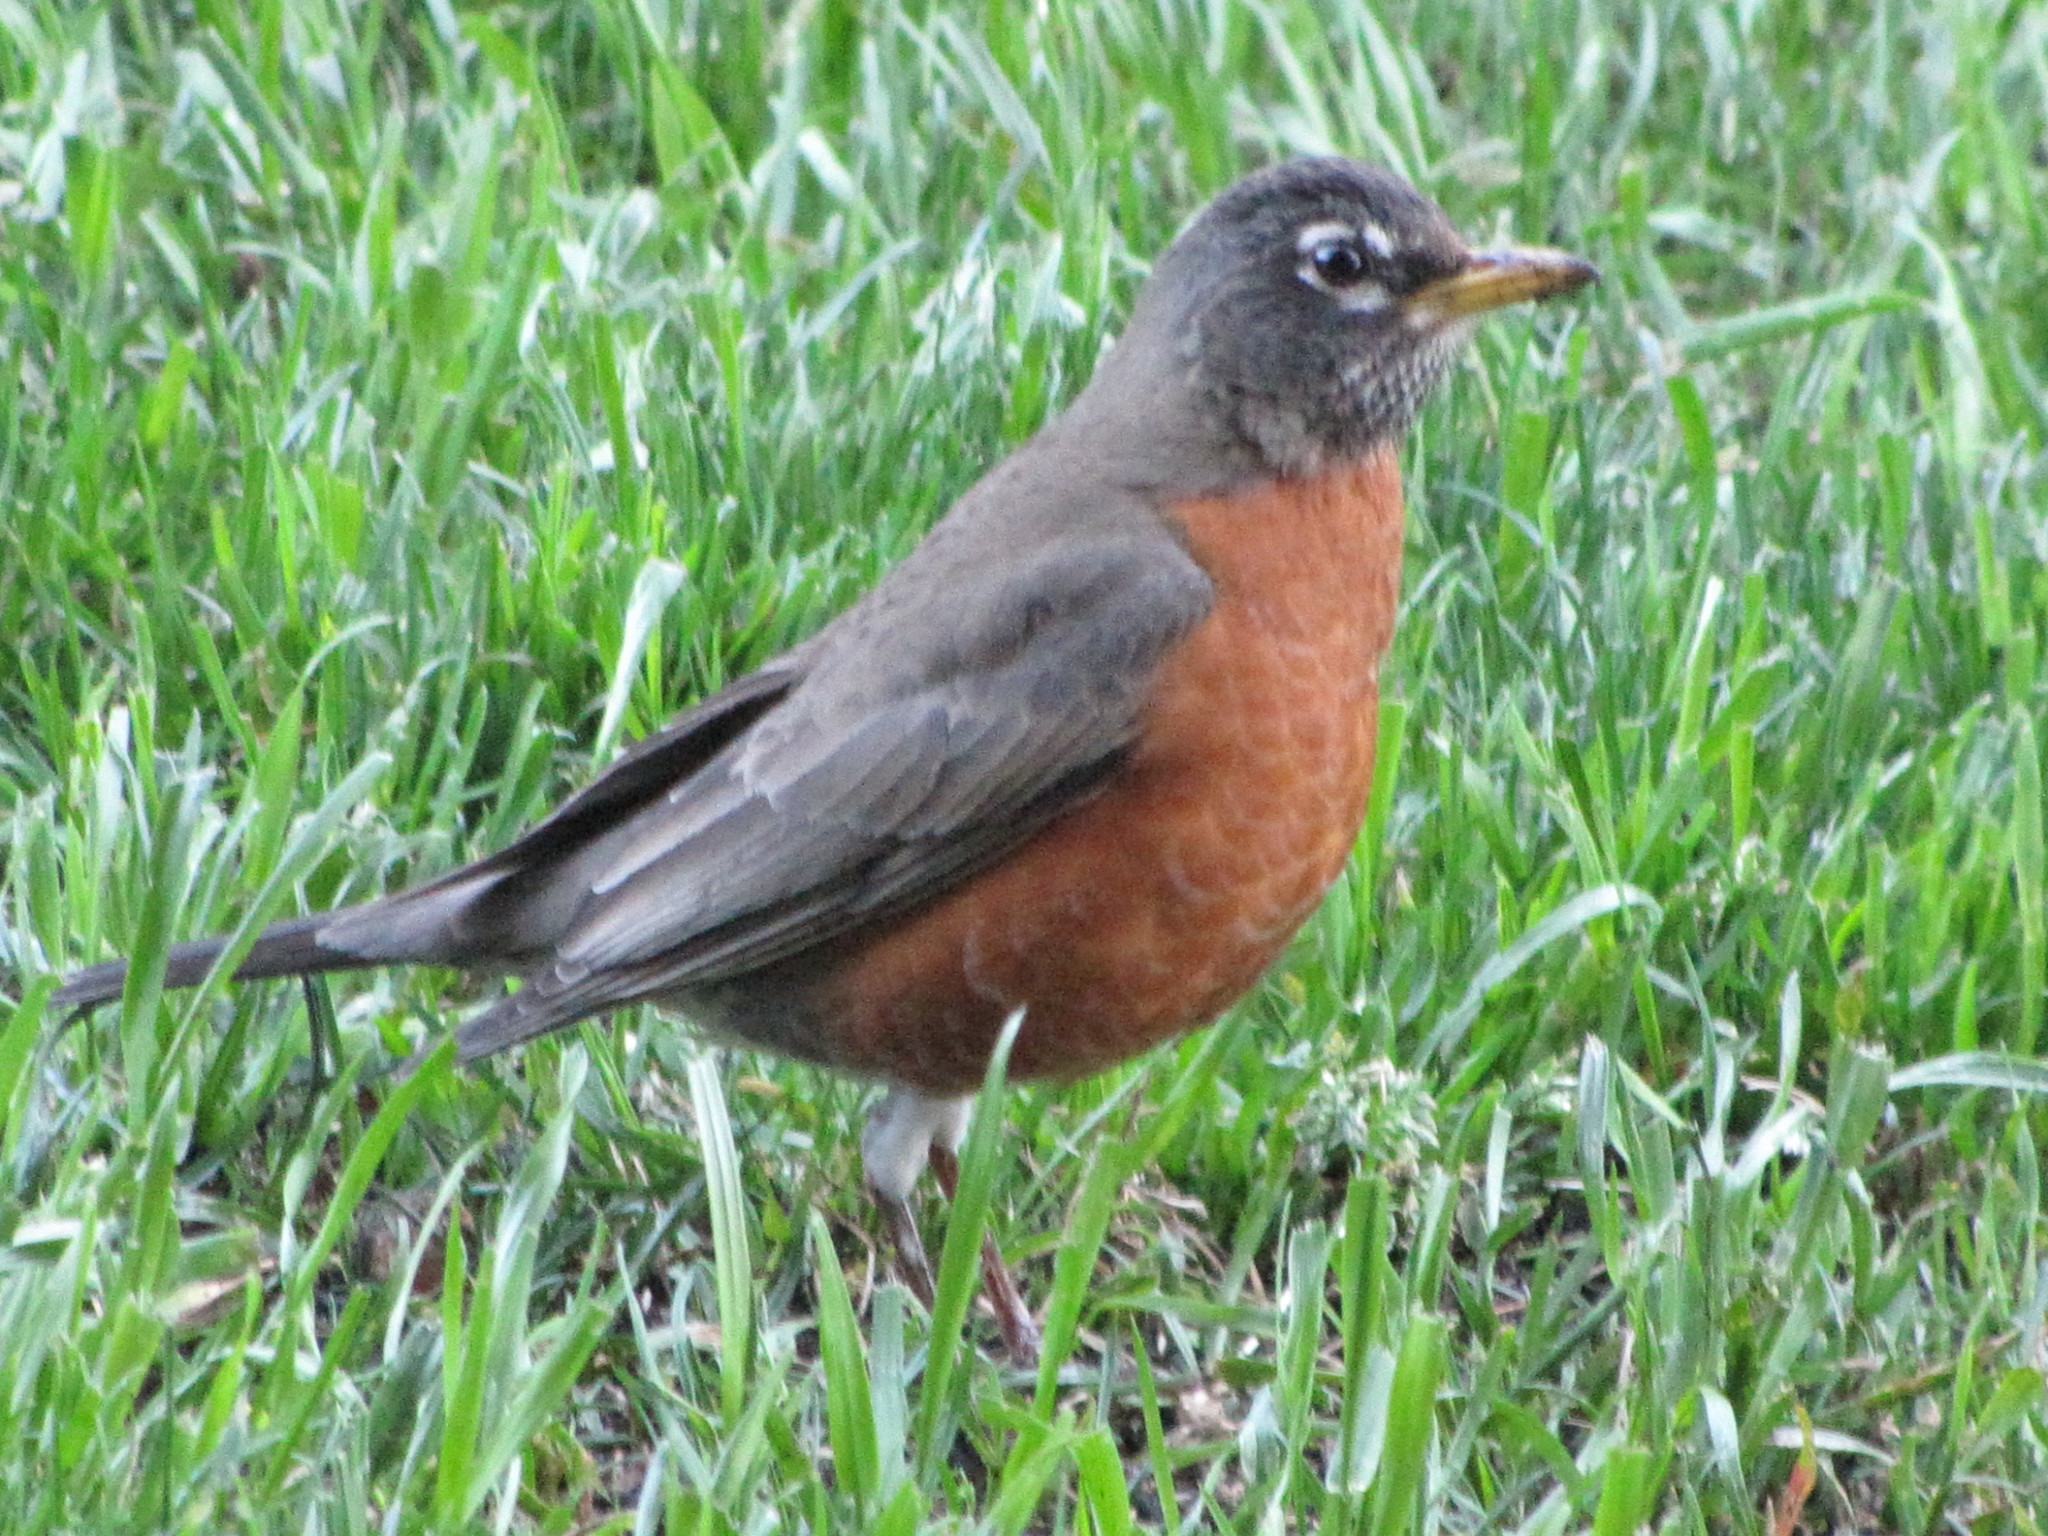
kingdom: Animalia
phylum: Chordata
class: Aves
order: Passeriformes
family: Turdidae
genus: Turdus
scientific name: Turdus migratorius
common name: American robin
